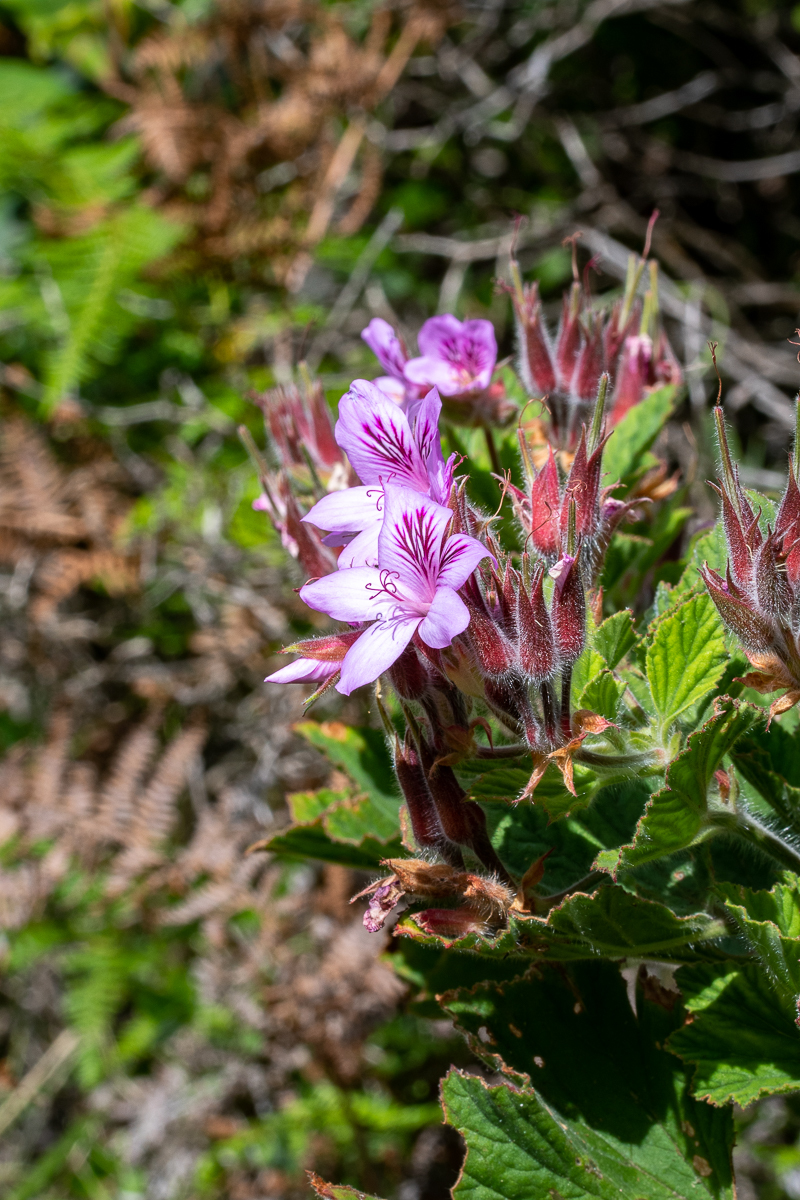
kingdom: Plantae
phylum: Tracheophyta
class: Magnoliopsida
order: Geraniales
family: Geraniaceae
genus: Pelargonium
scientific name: Pelargonium cucullatum
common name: Tree pelargonium
